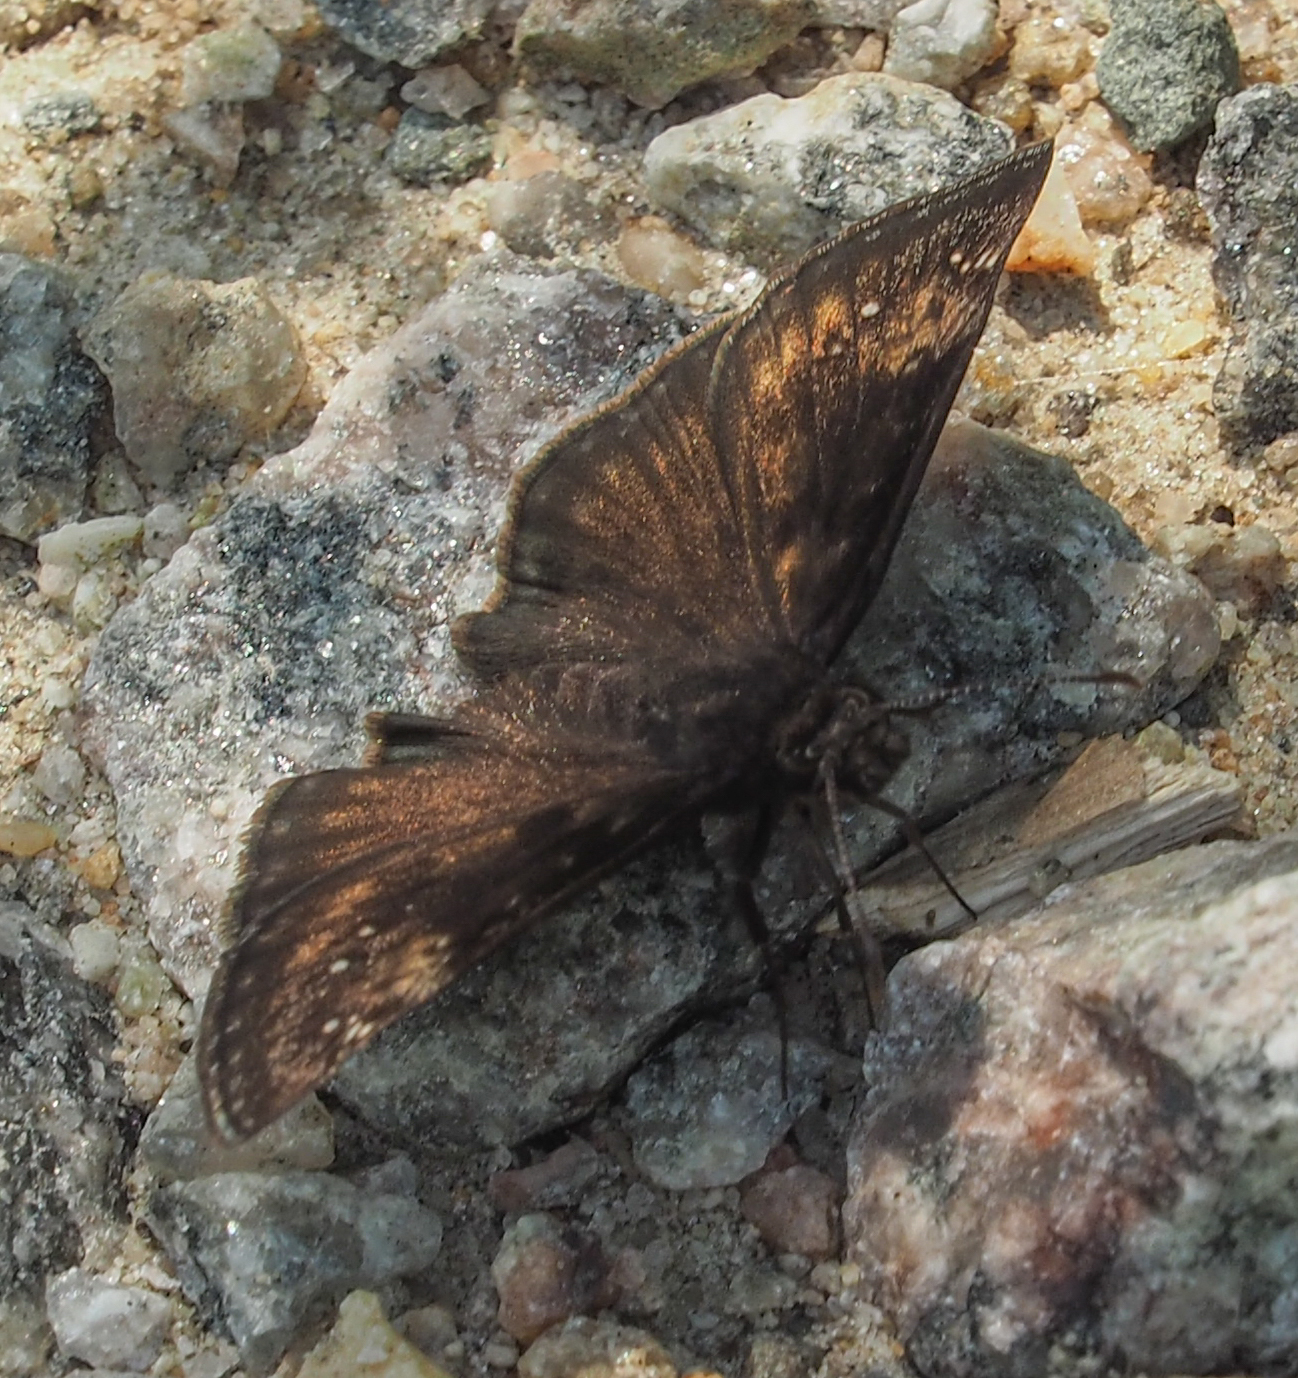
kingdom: Animalia
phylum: Arthropoda
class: Insecta
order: Lepidoptera
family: Hesperiidae
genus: Erynnis
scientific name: Erynnis baptisiae
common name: Wild indigo duskywing
